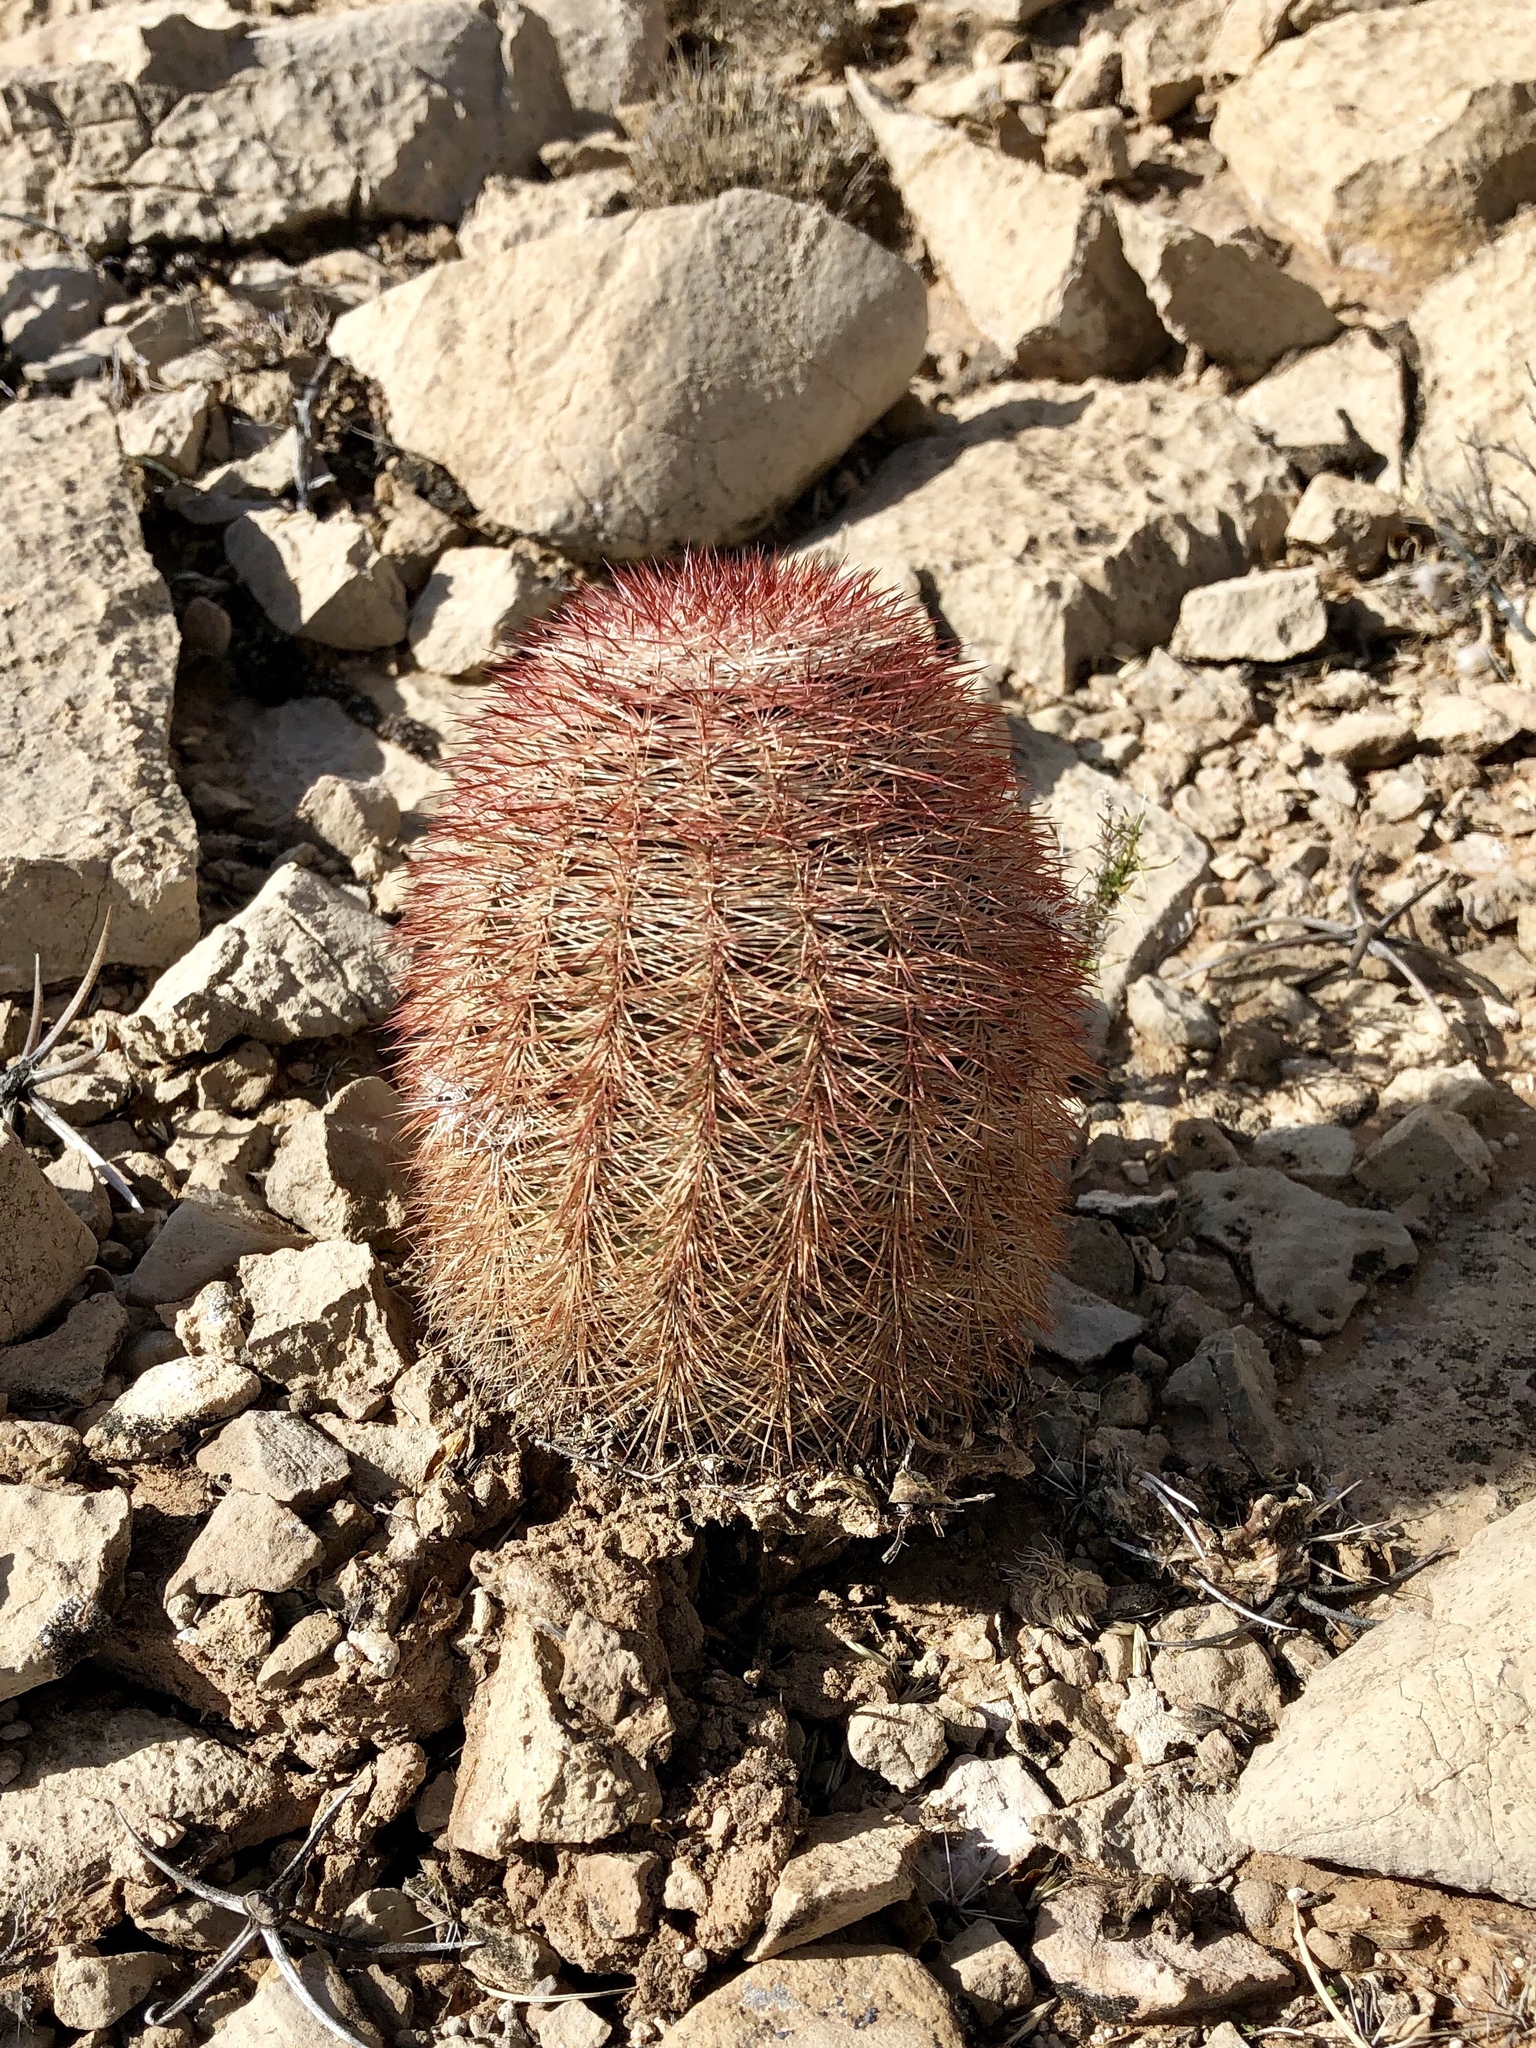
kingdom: Plantae
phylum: Tracheophyta
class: Magnoliopsida
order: Caryophyllales
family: Cactaceae
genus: Echinocereus
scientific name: Echinocereus dasyacanthus
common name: Spiny hedgehog cactus
